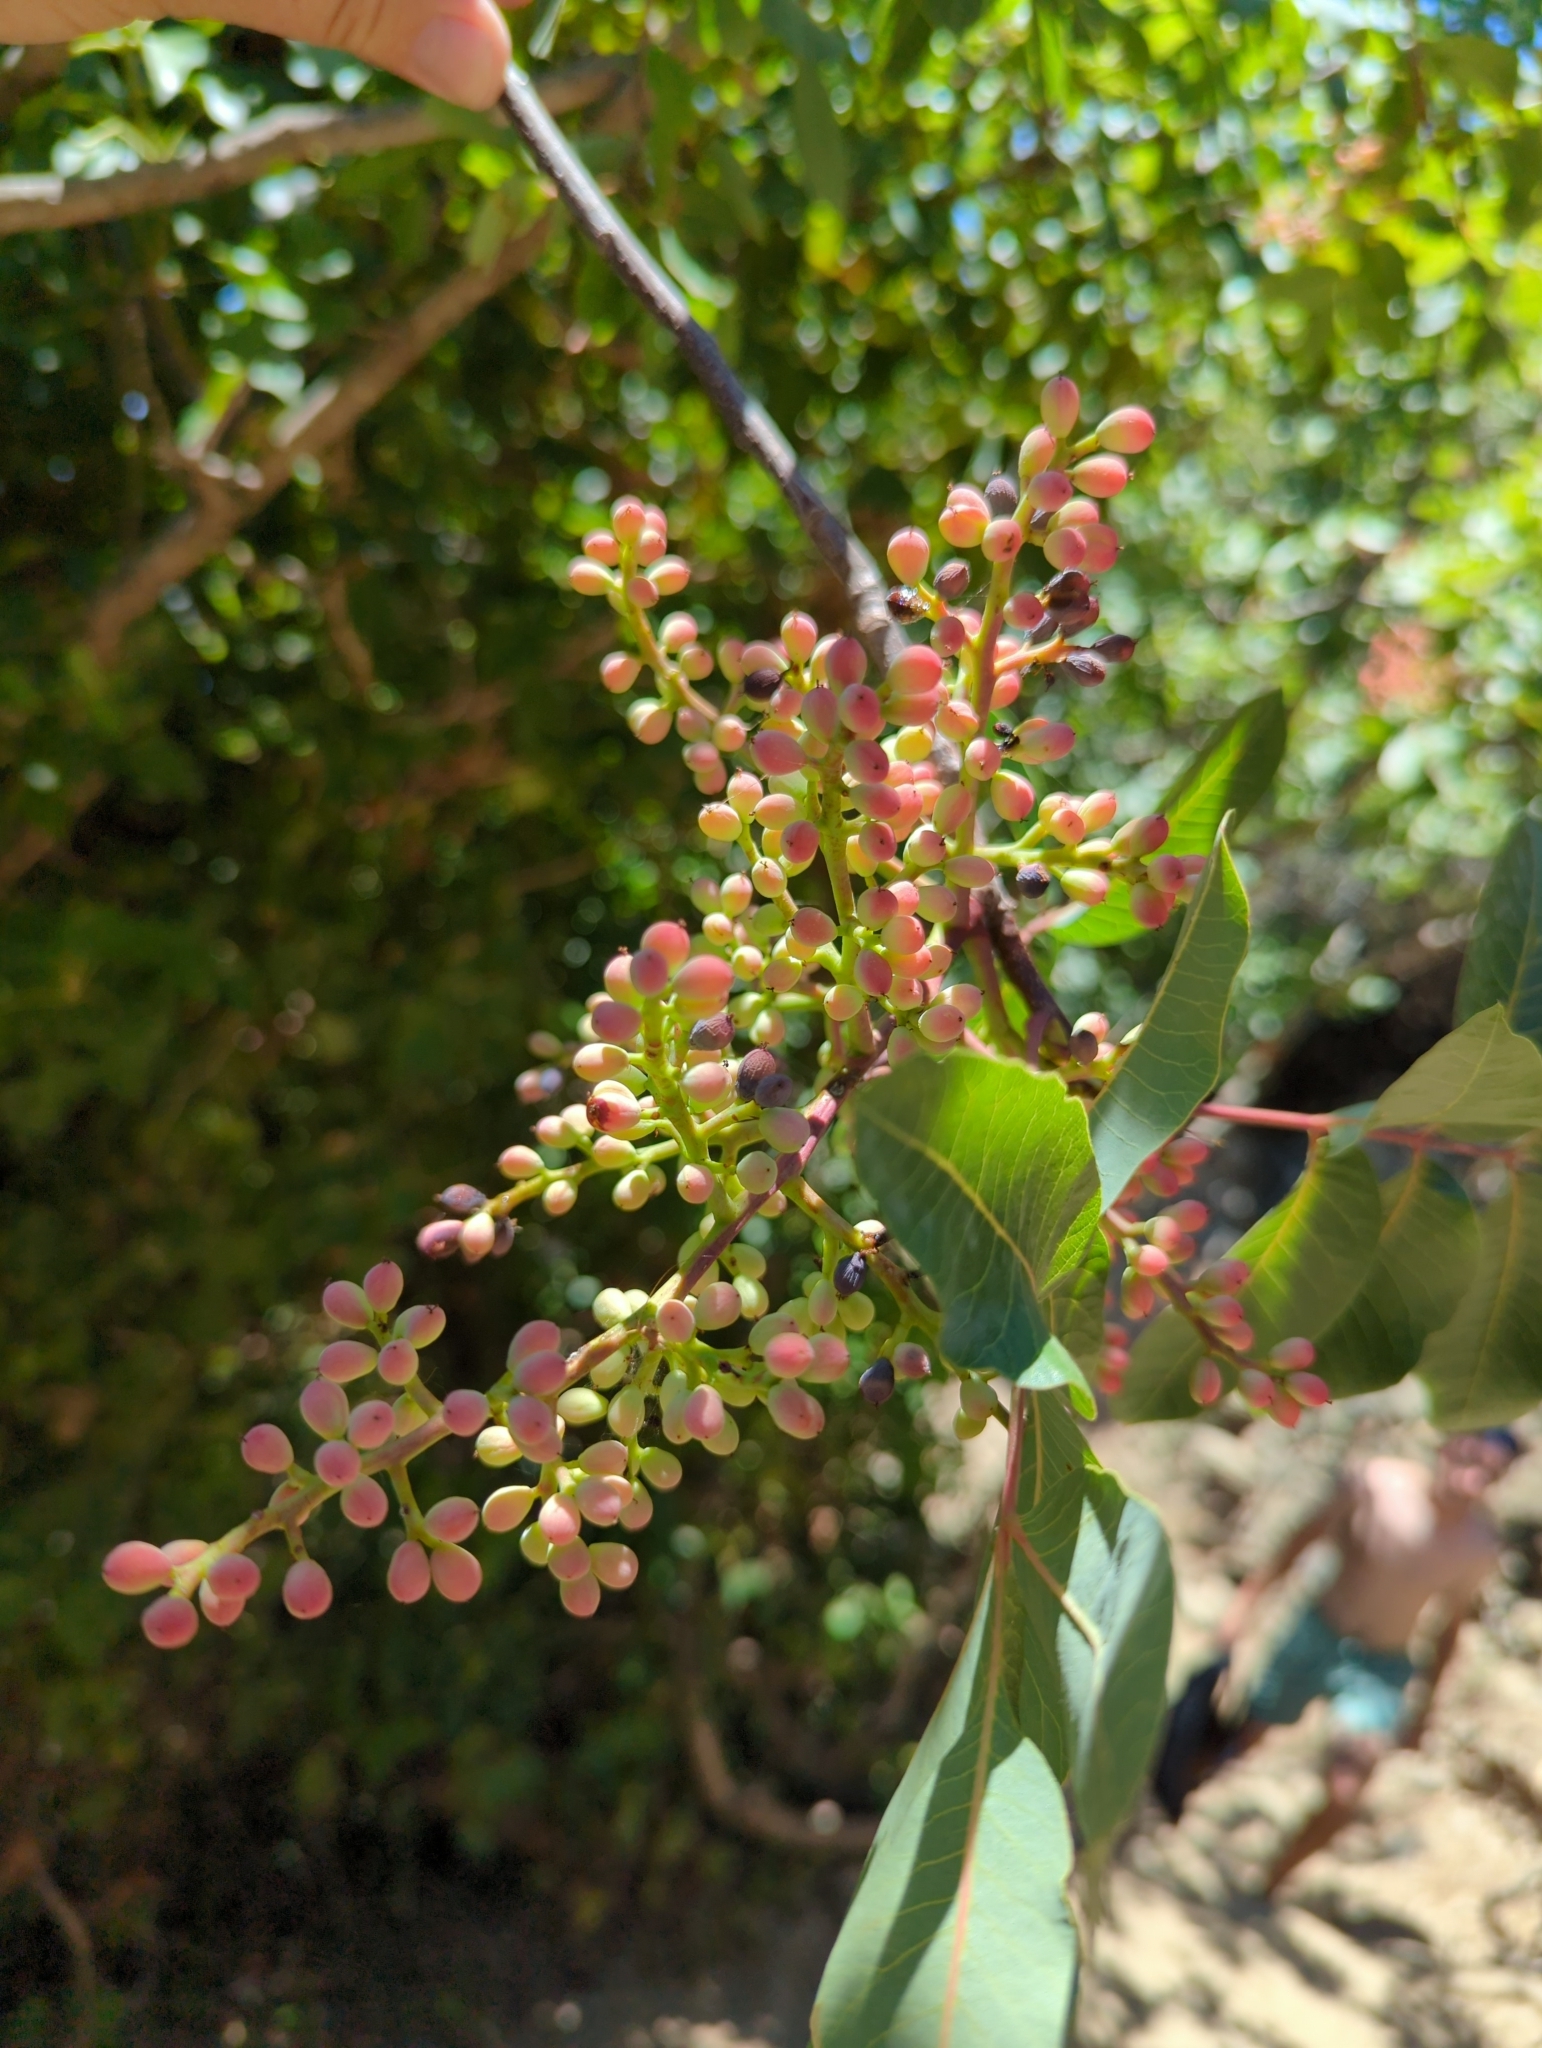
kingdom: Plantae
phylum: Tracheophyta
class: Magnoliopsida
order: Sapindales
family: Anacardiaceae
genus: Pistacia
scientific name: Pistacia terebinthus
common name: Terebinth
